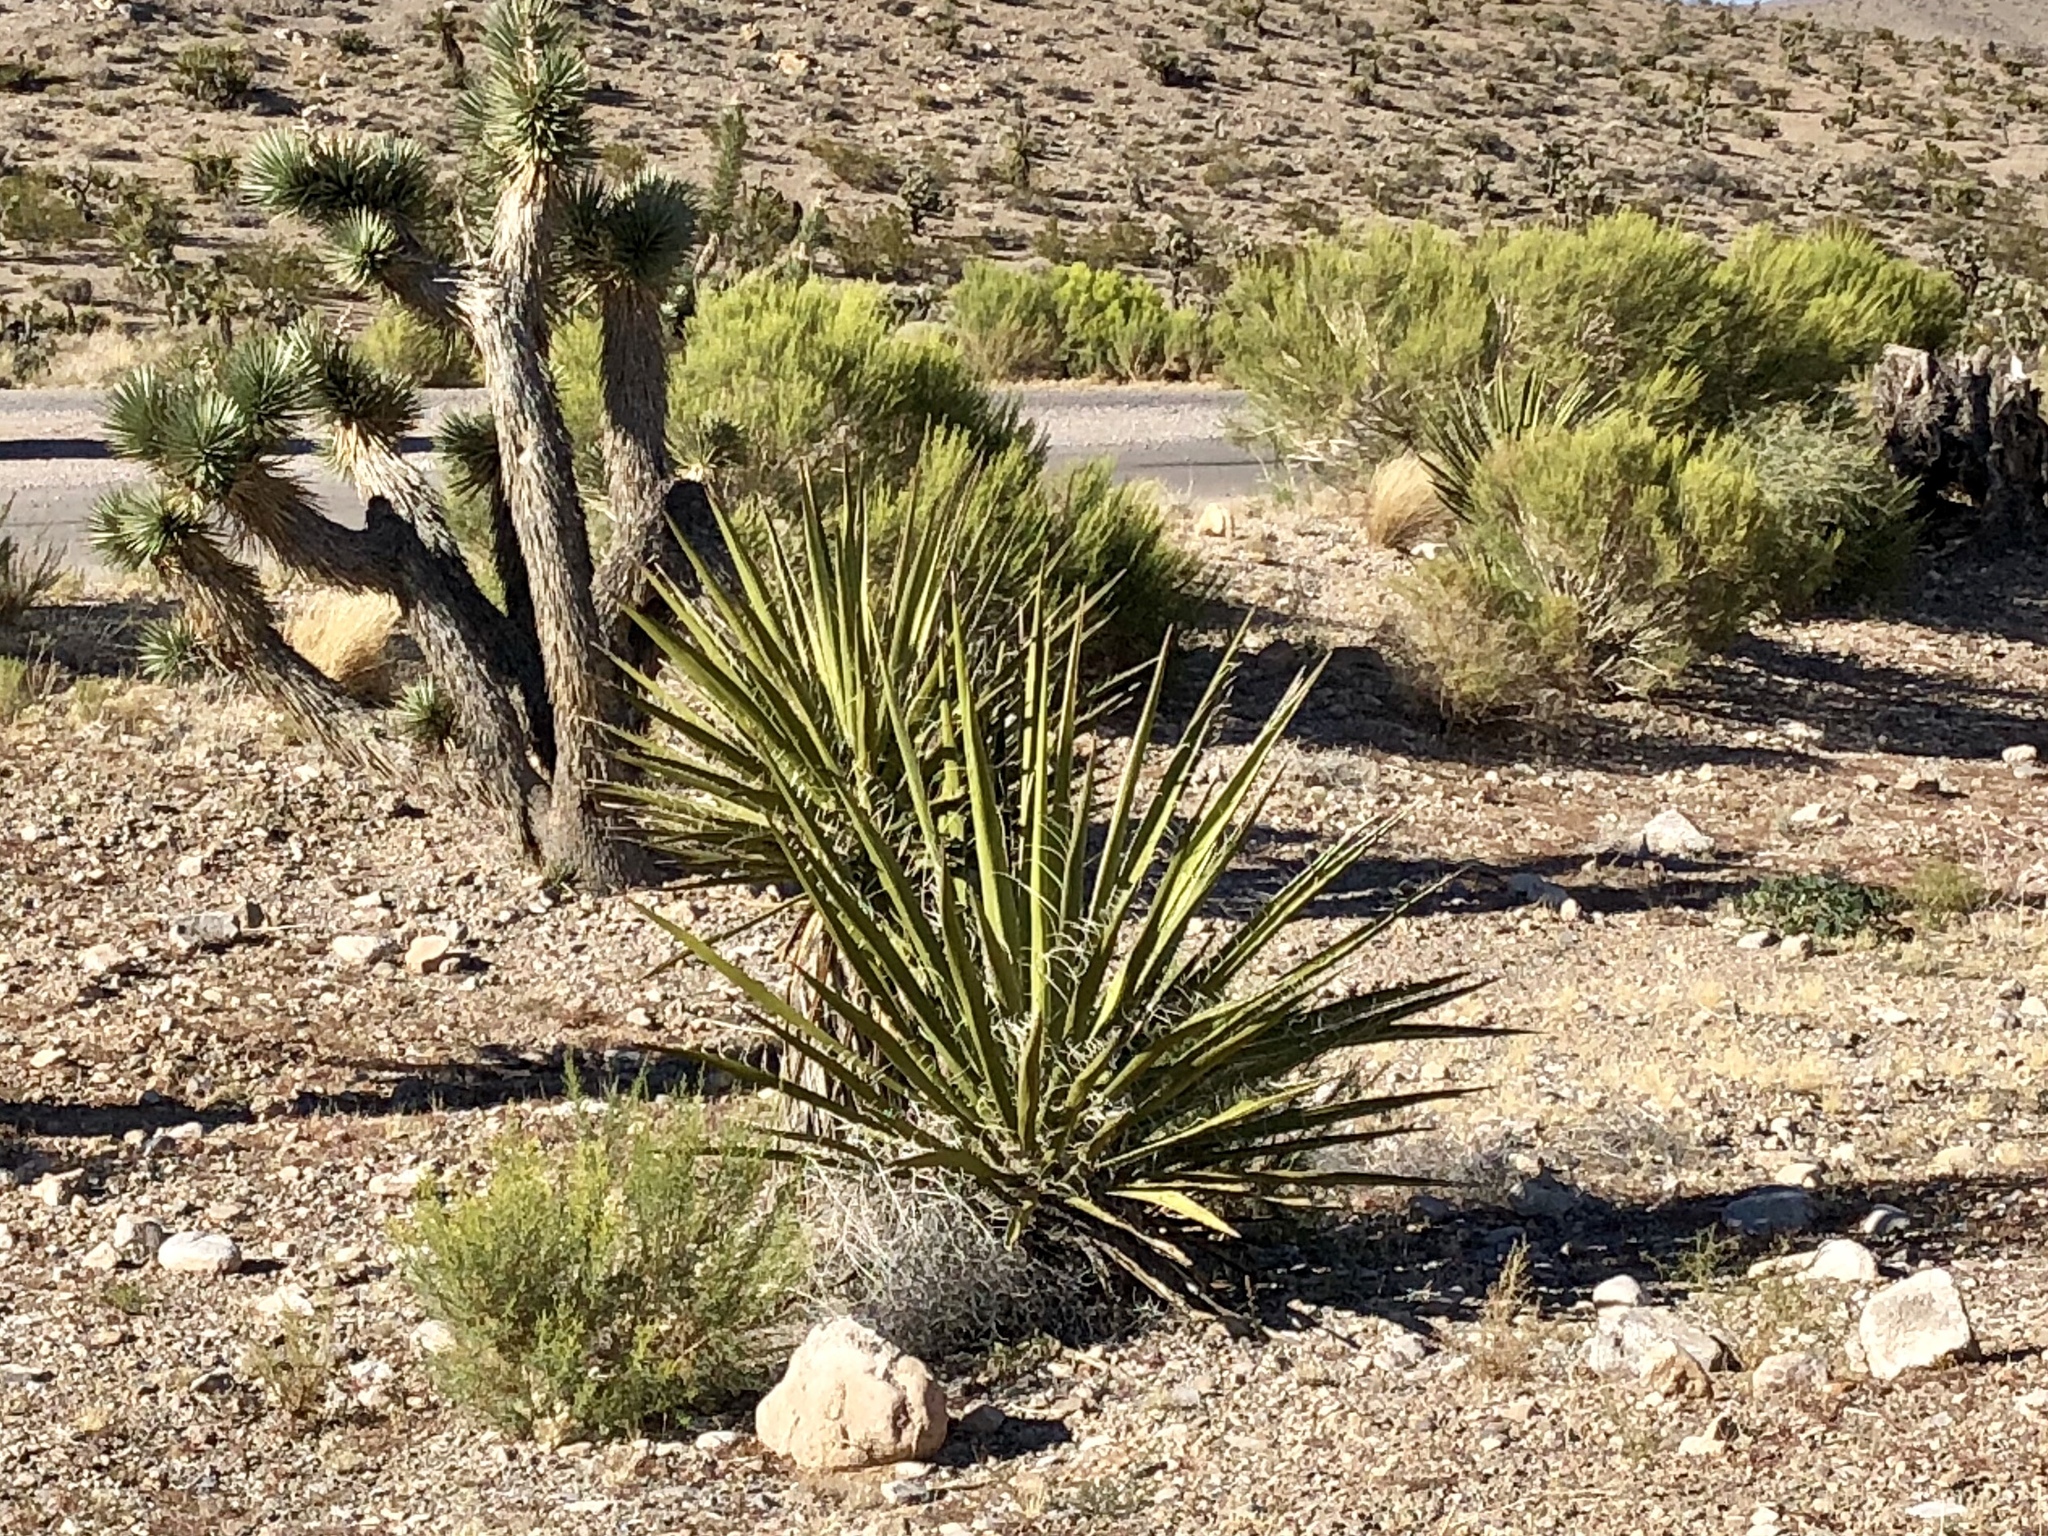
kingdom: Plantae
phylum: Tracheophyta
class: Liliopsida
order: Asparagales
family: Asparagaceae
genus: Yucca
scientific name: Yucca schidigera
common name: Mojave yucca
